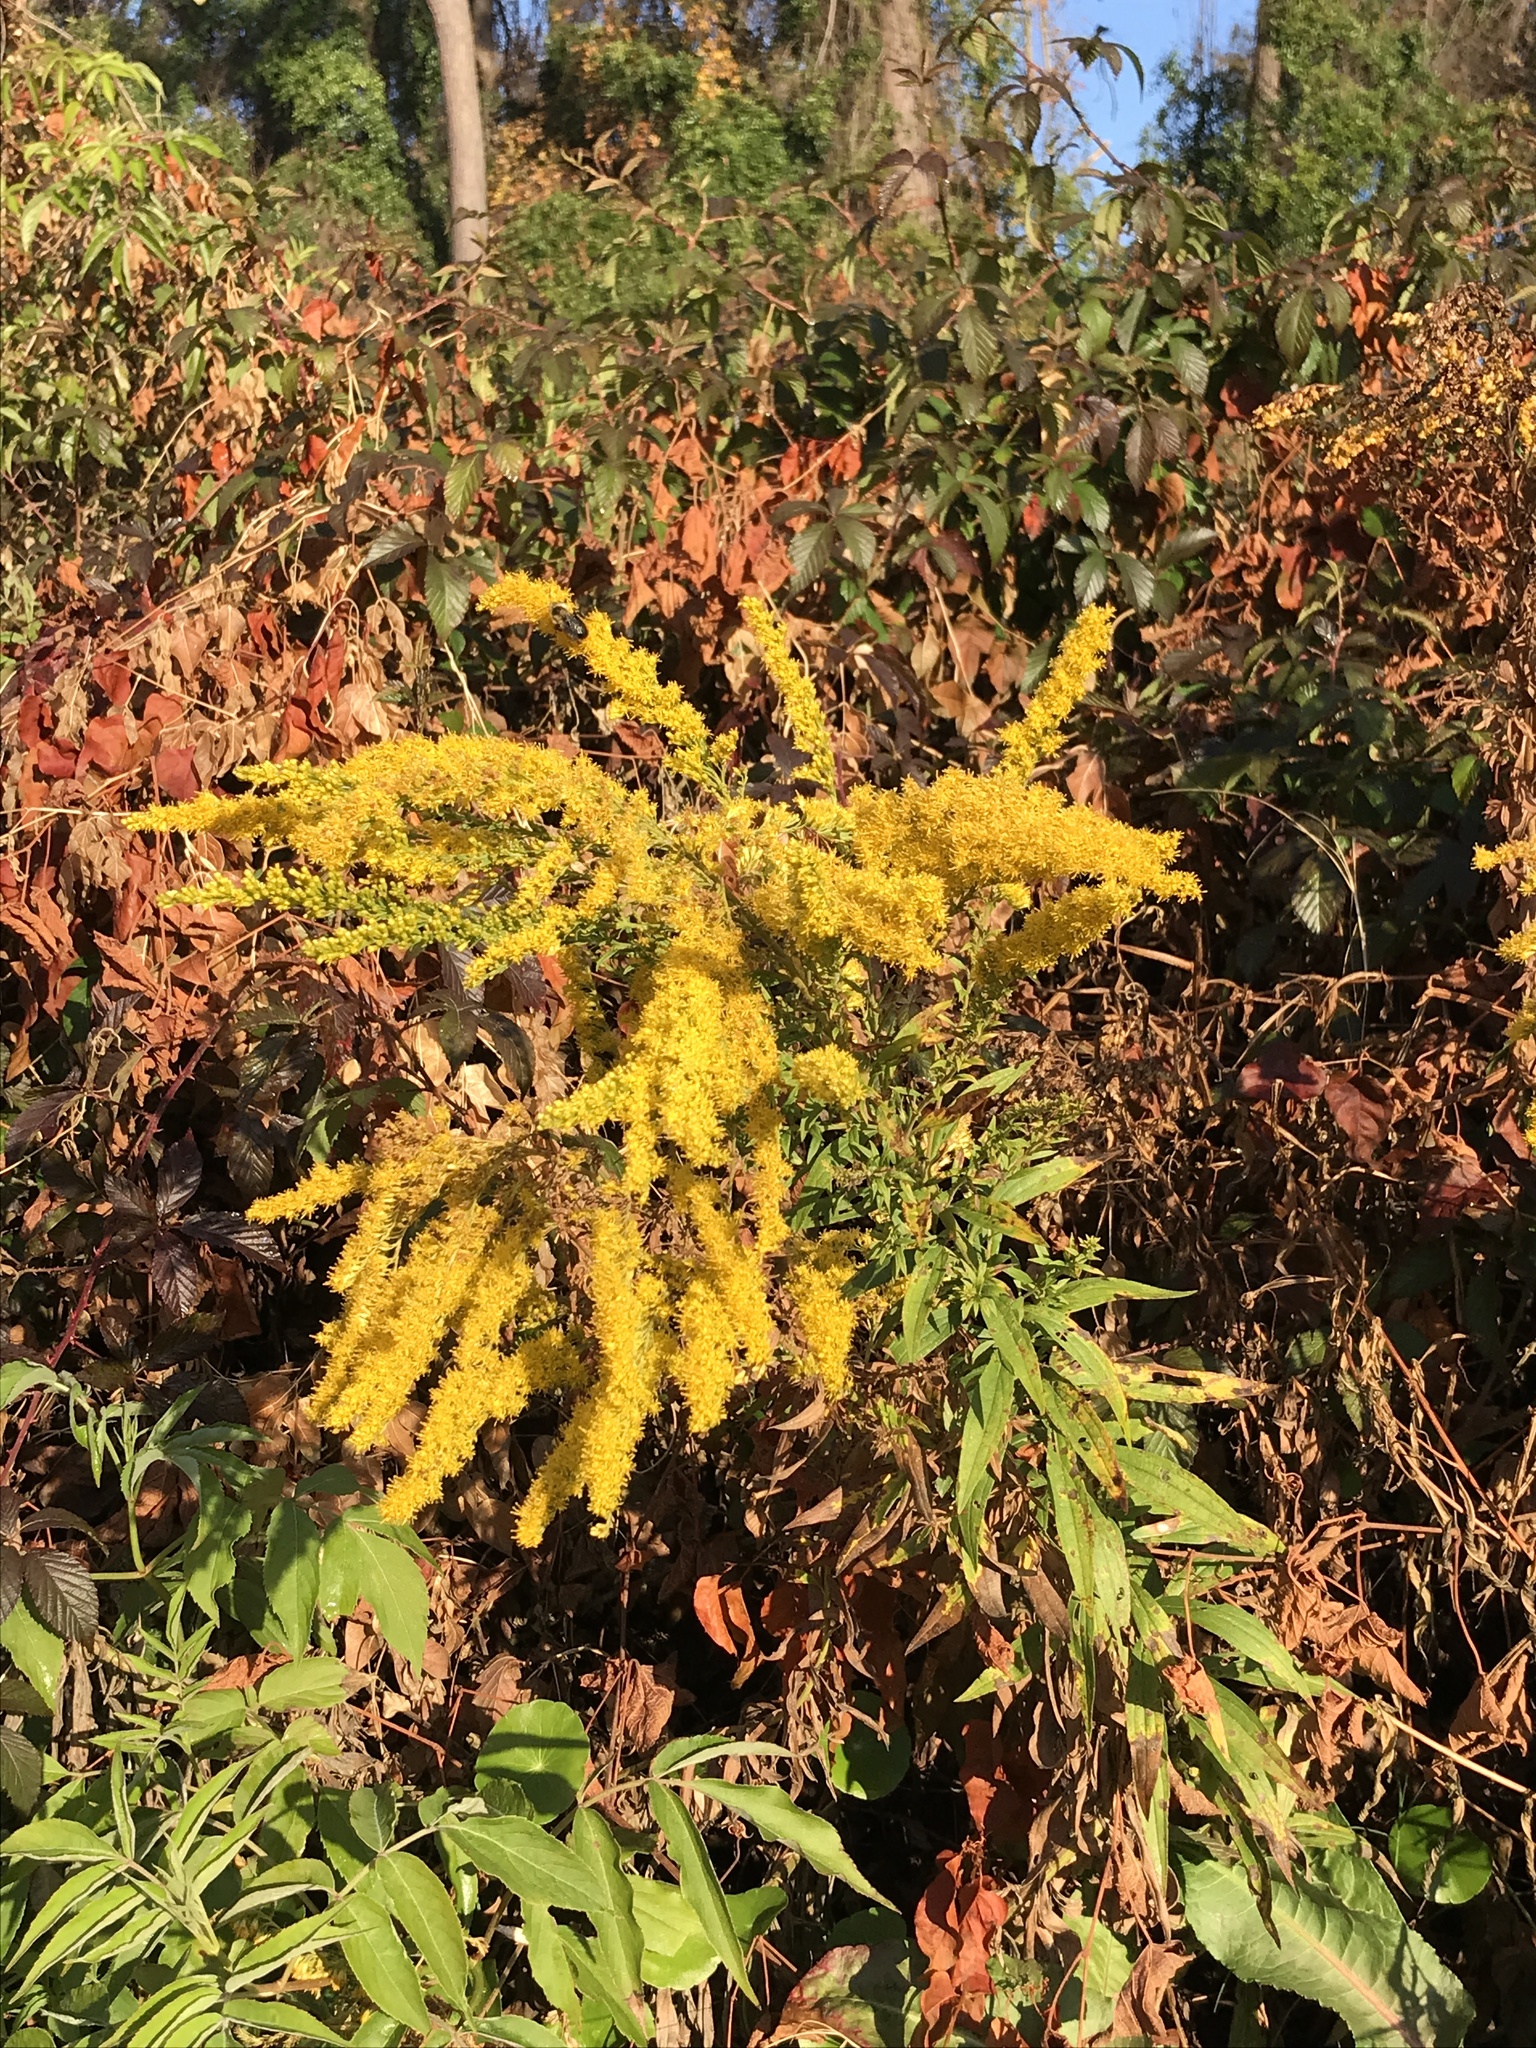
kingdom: Plantae
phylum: Tracheophyta
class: Magnoliopsida
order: Asterales
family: Asteraceae
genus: Solidago
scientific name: Solidago altissima
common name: Late goldenrod
